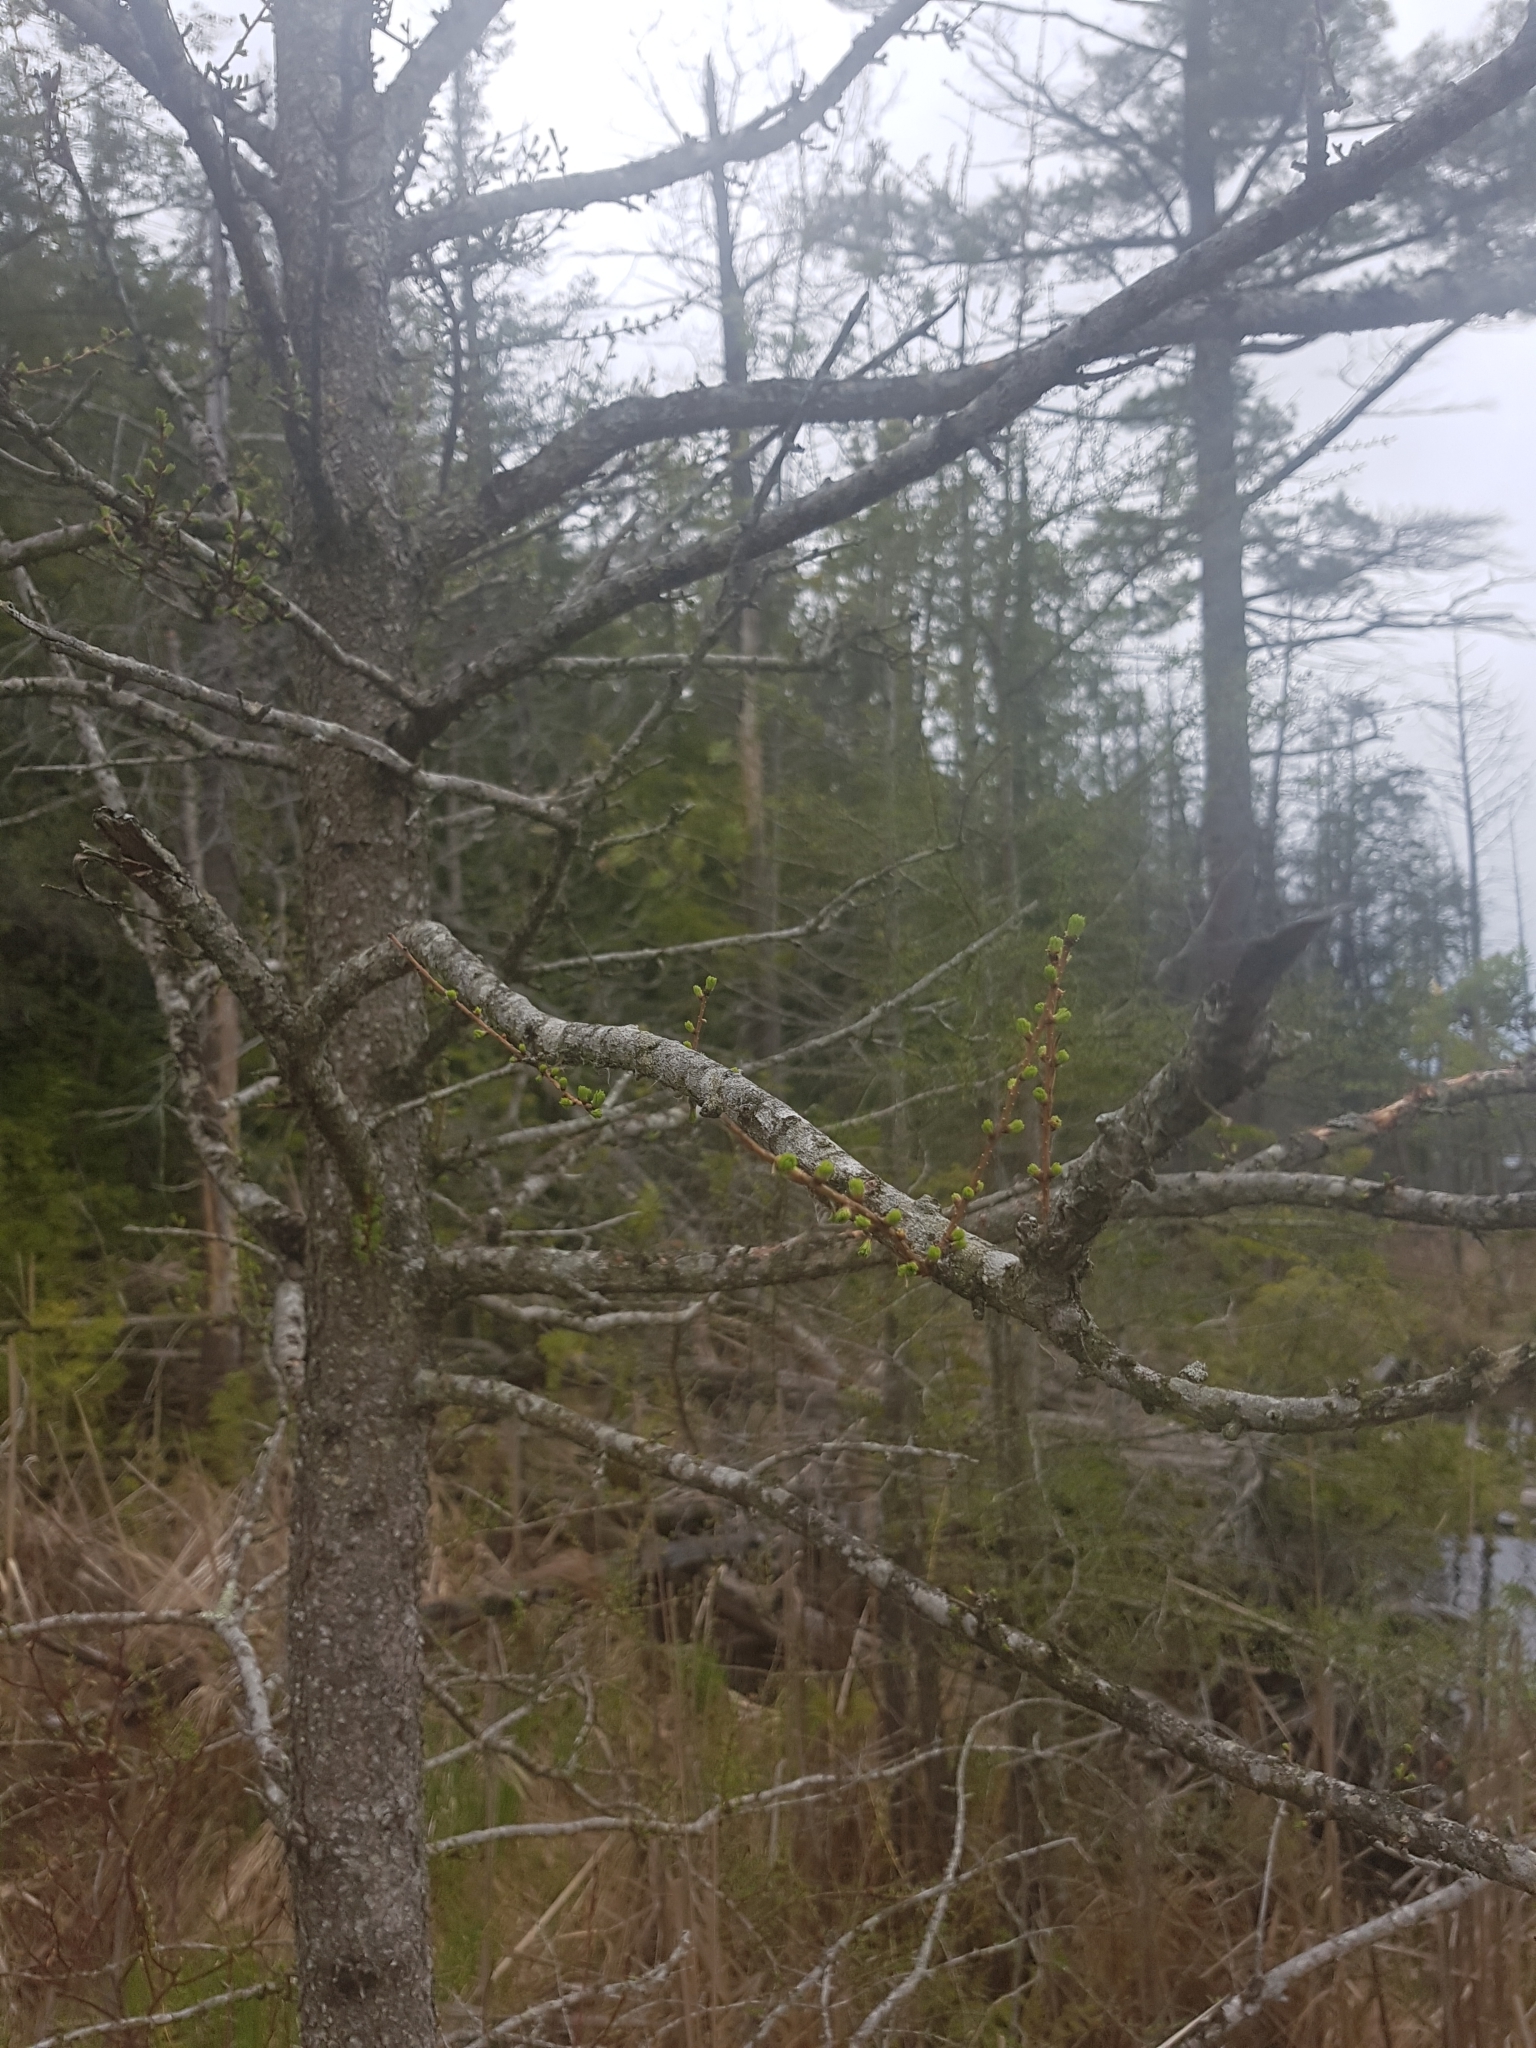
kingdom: Plantae
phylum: Tracheophyta
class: Pinopsida
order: Pinales
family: Pinaceae
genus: Larix
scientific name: Larix laricina
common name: American larch
